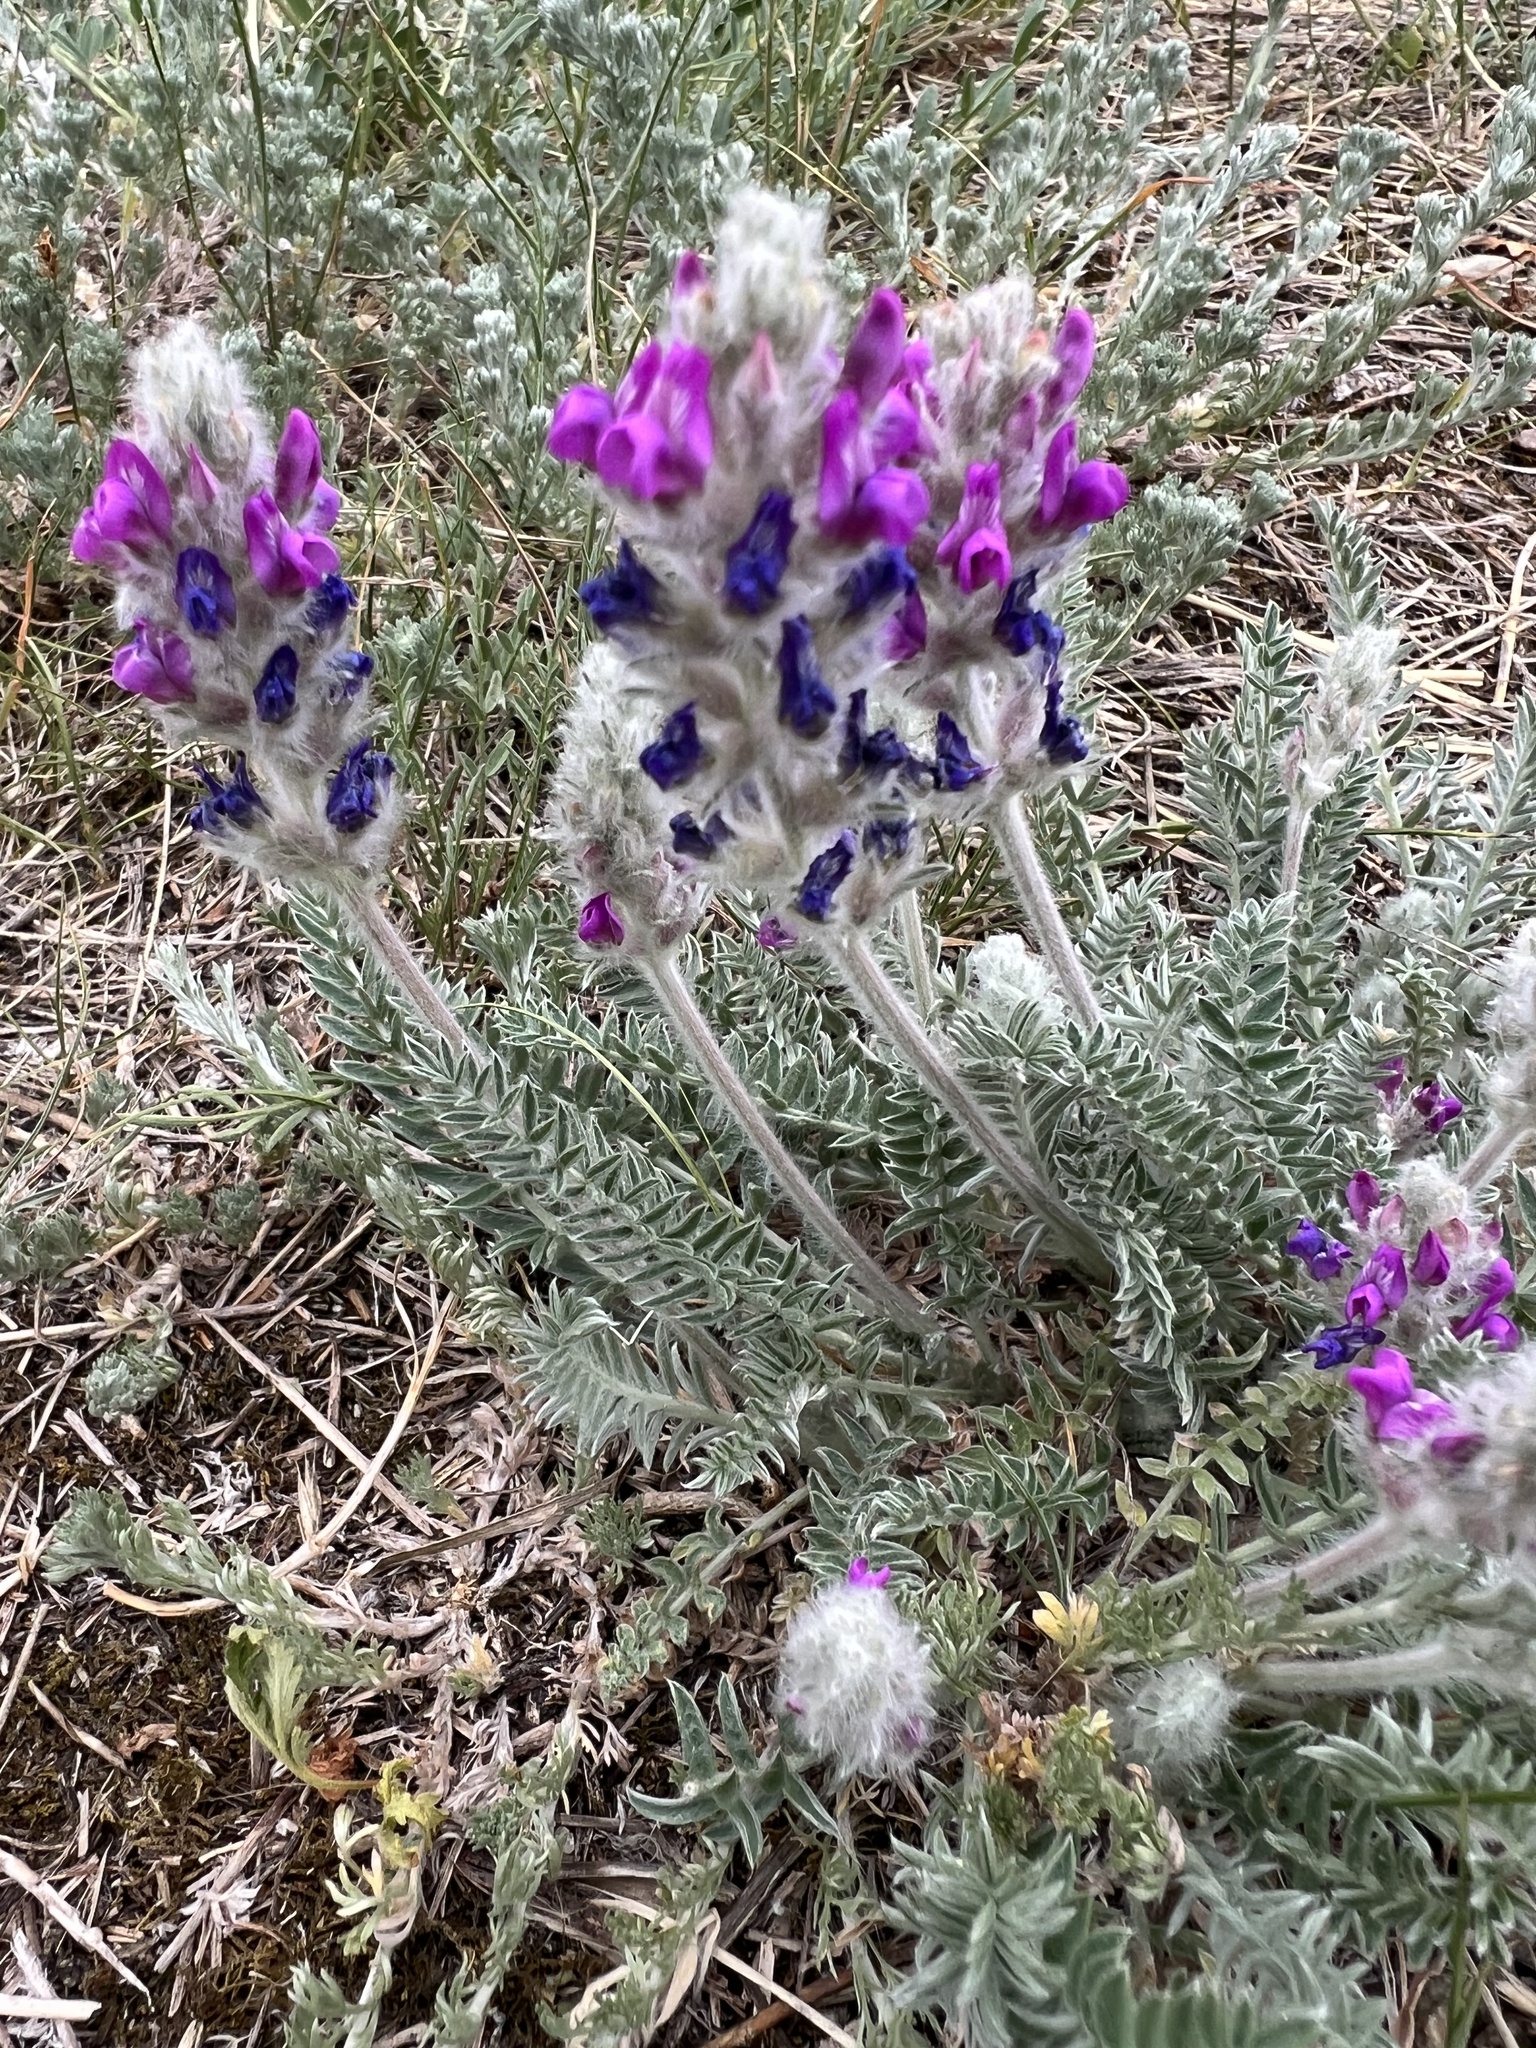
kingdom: Plantae
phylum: Tracheophyta
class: Magnoliopsida
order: Fabales
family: Fabaceae
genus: Oxytropis
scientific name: Oxytropis splendens
